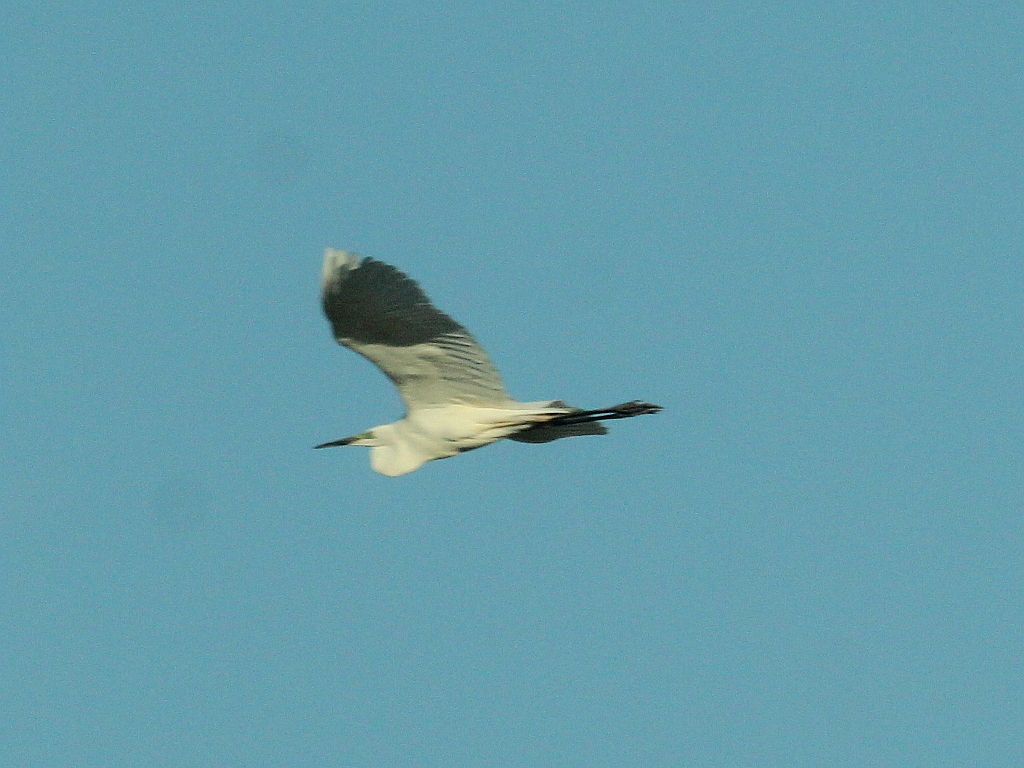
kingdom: Animalia
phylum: Chordata
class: Aves
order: Pelecaniformes
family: Ardeidae
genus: Ardea
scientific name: Ardea alba
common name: Great egret
